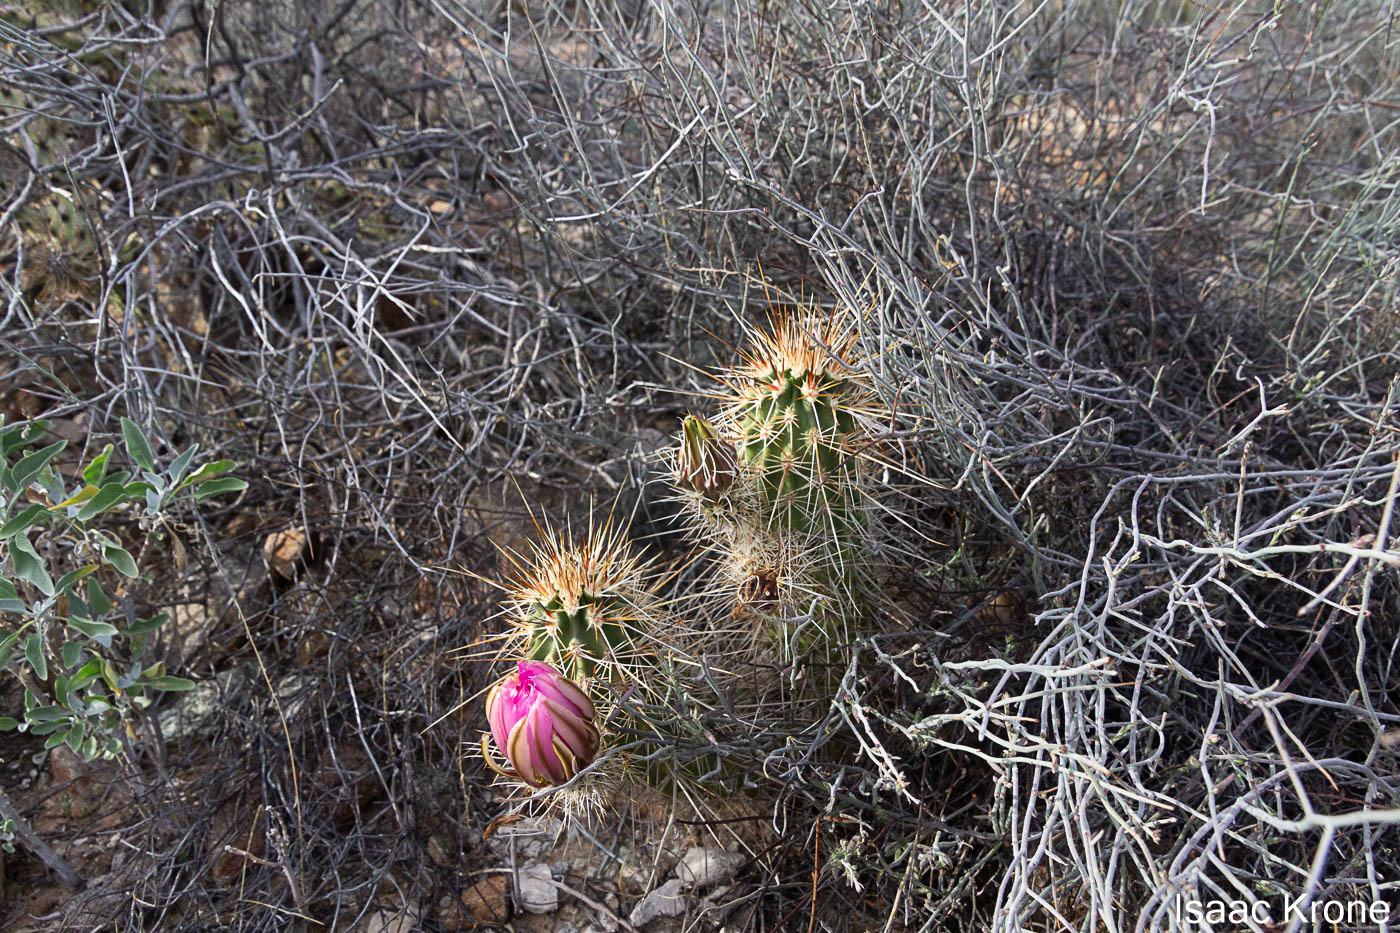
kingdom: Plantae
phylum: Tracheophyta
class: Magnoliopsida
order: Caryophyllales
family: Cactaceae
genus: Echinocereus
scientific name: Echinocereus engelmannii
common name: Engelmann's hedgehog cactus
